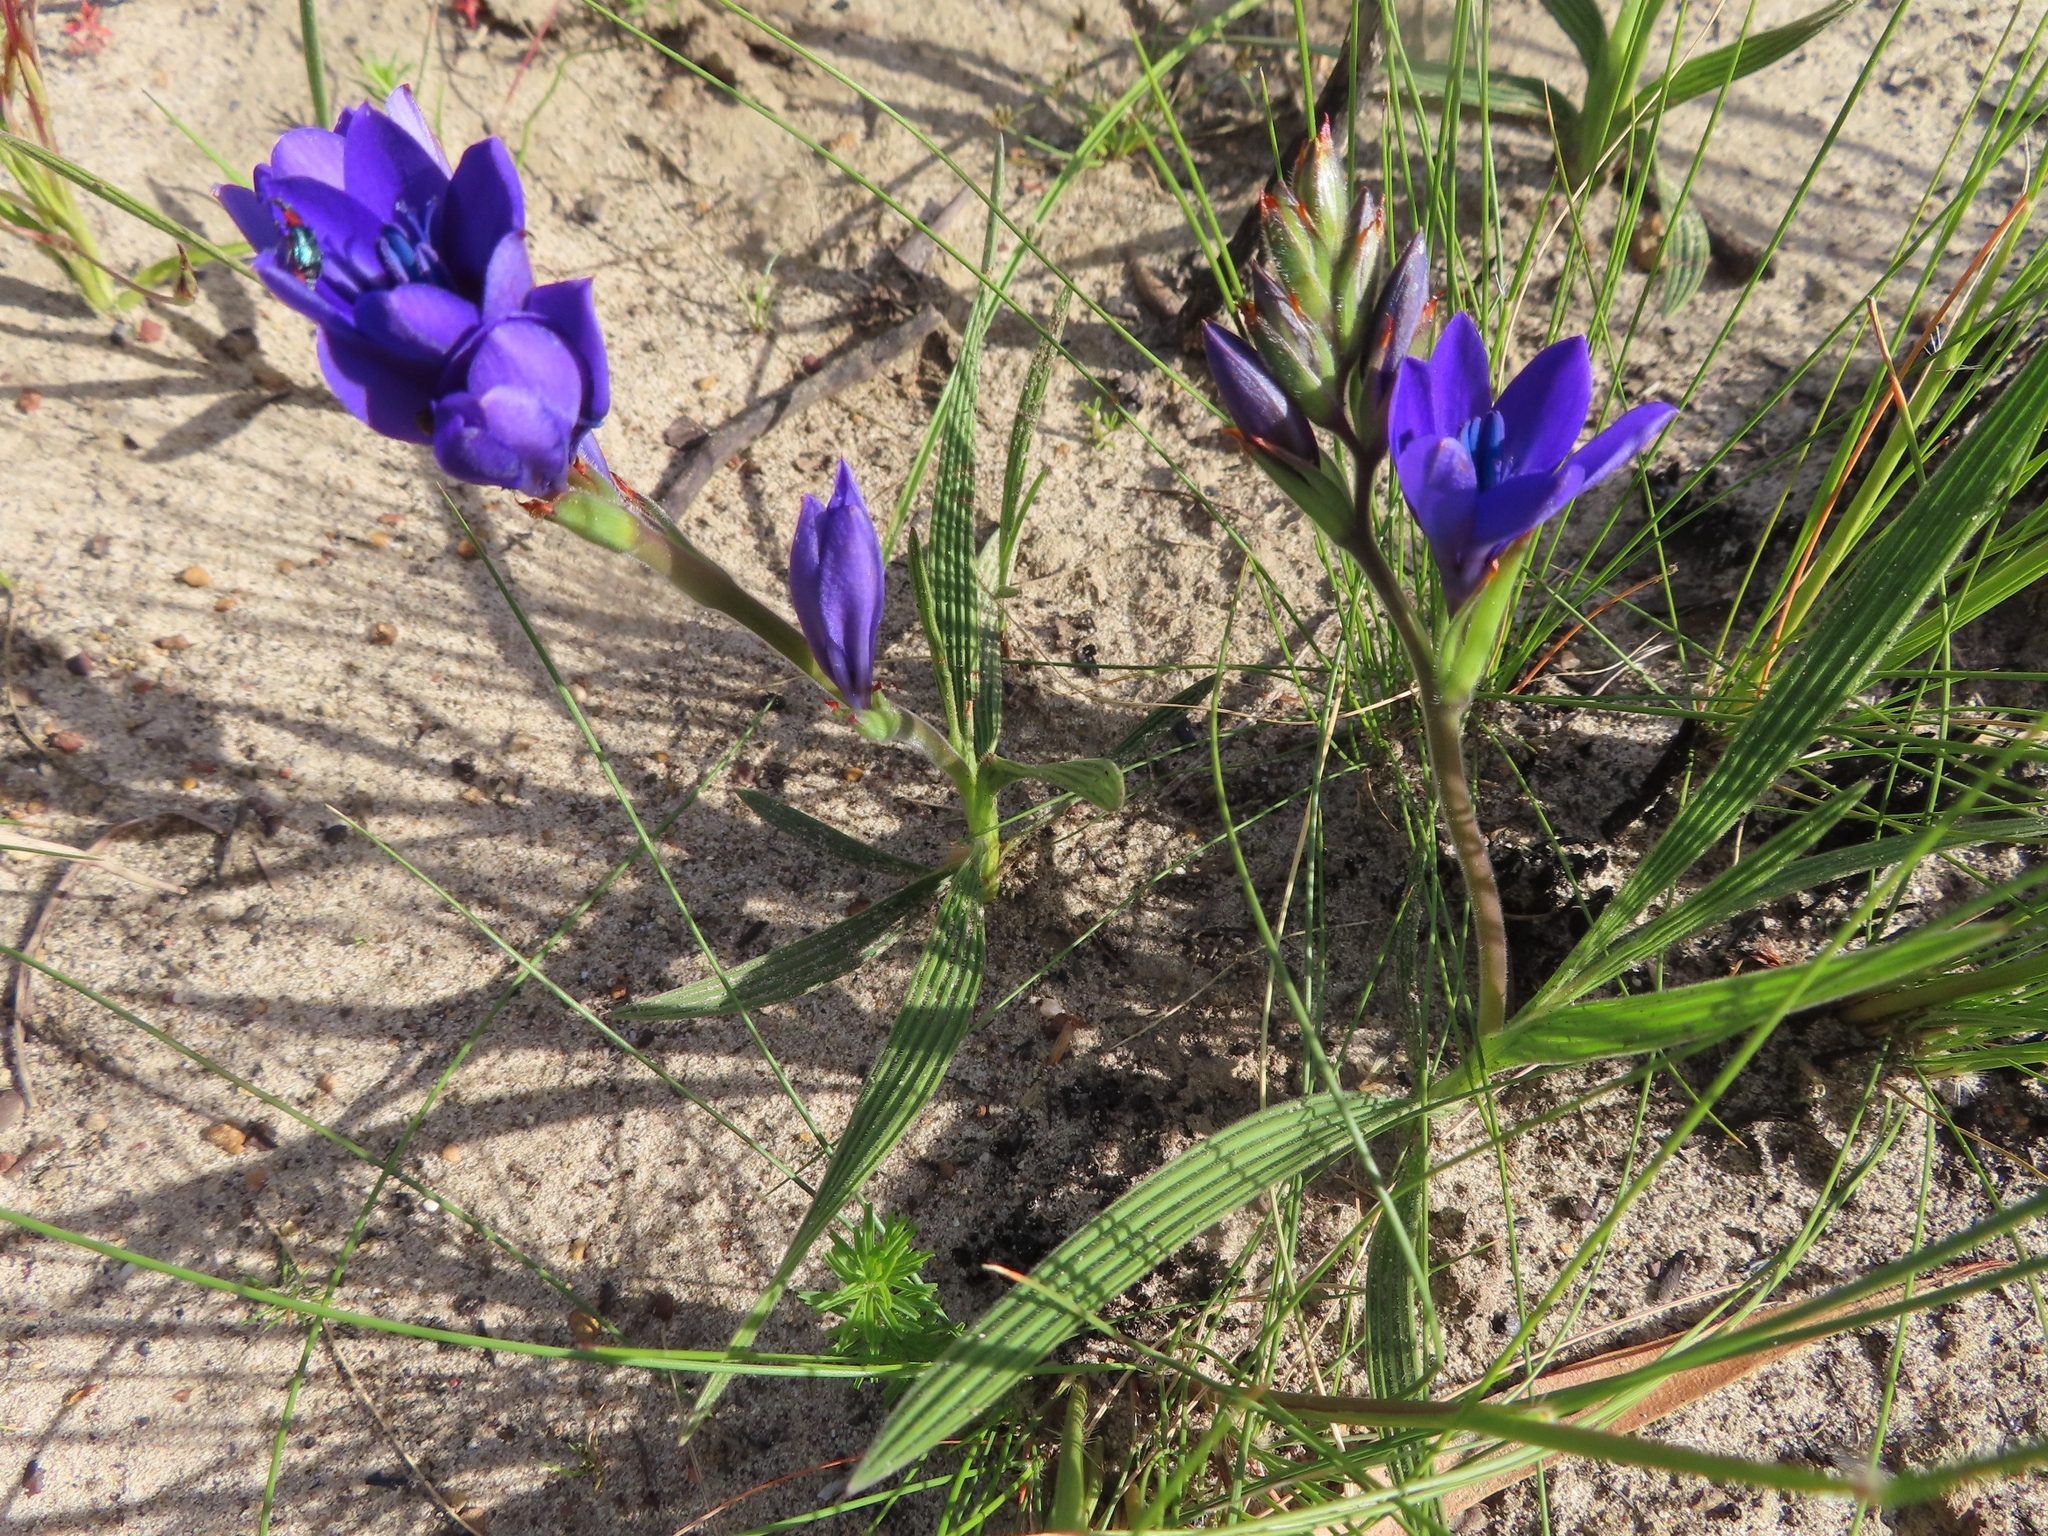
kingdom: Plantae
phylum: Tracheophyta
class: Liliopsida
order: Asparagales
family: Iridaceae
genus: Babiana
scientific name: Babiana angustifolia
